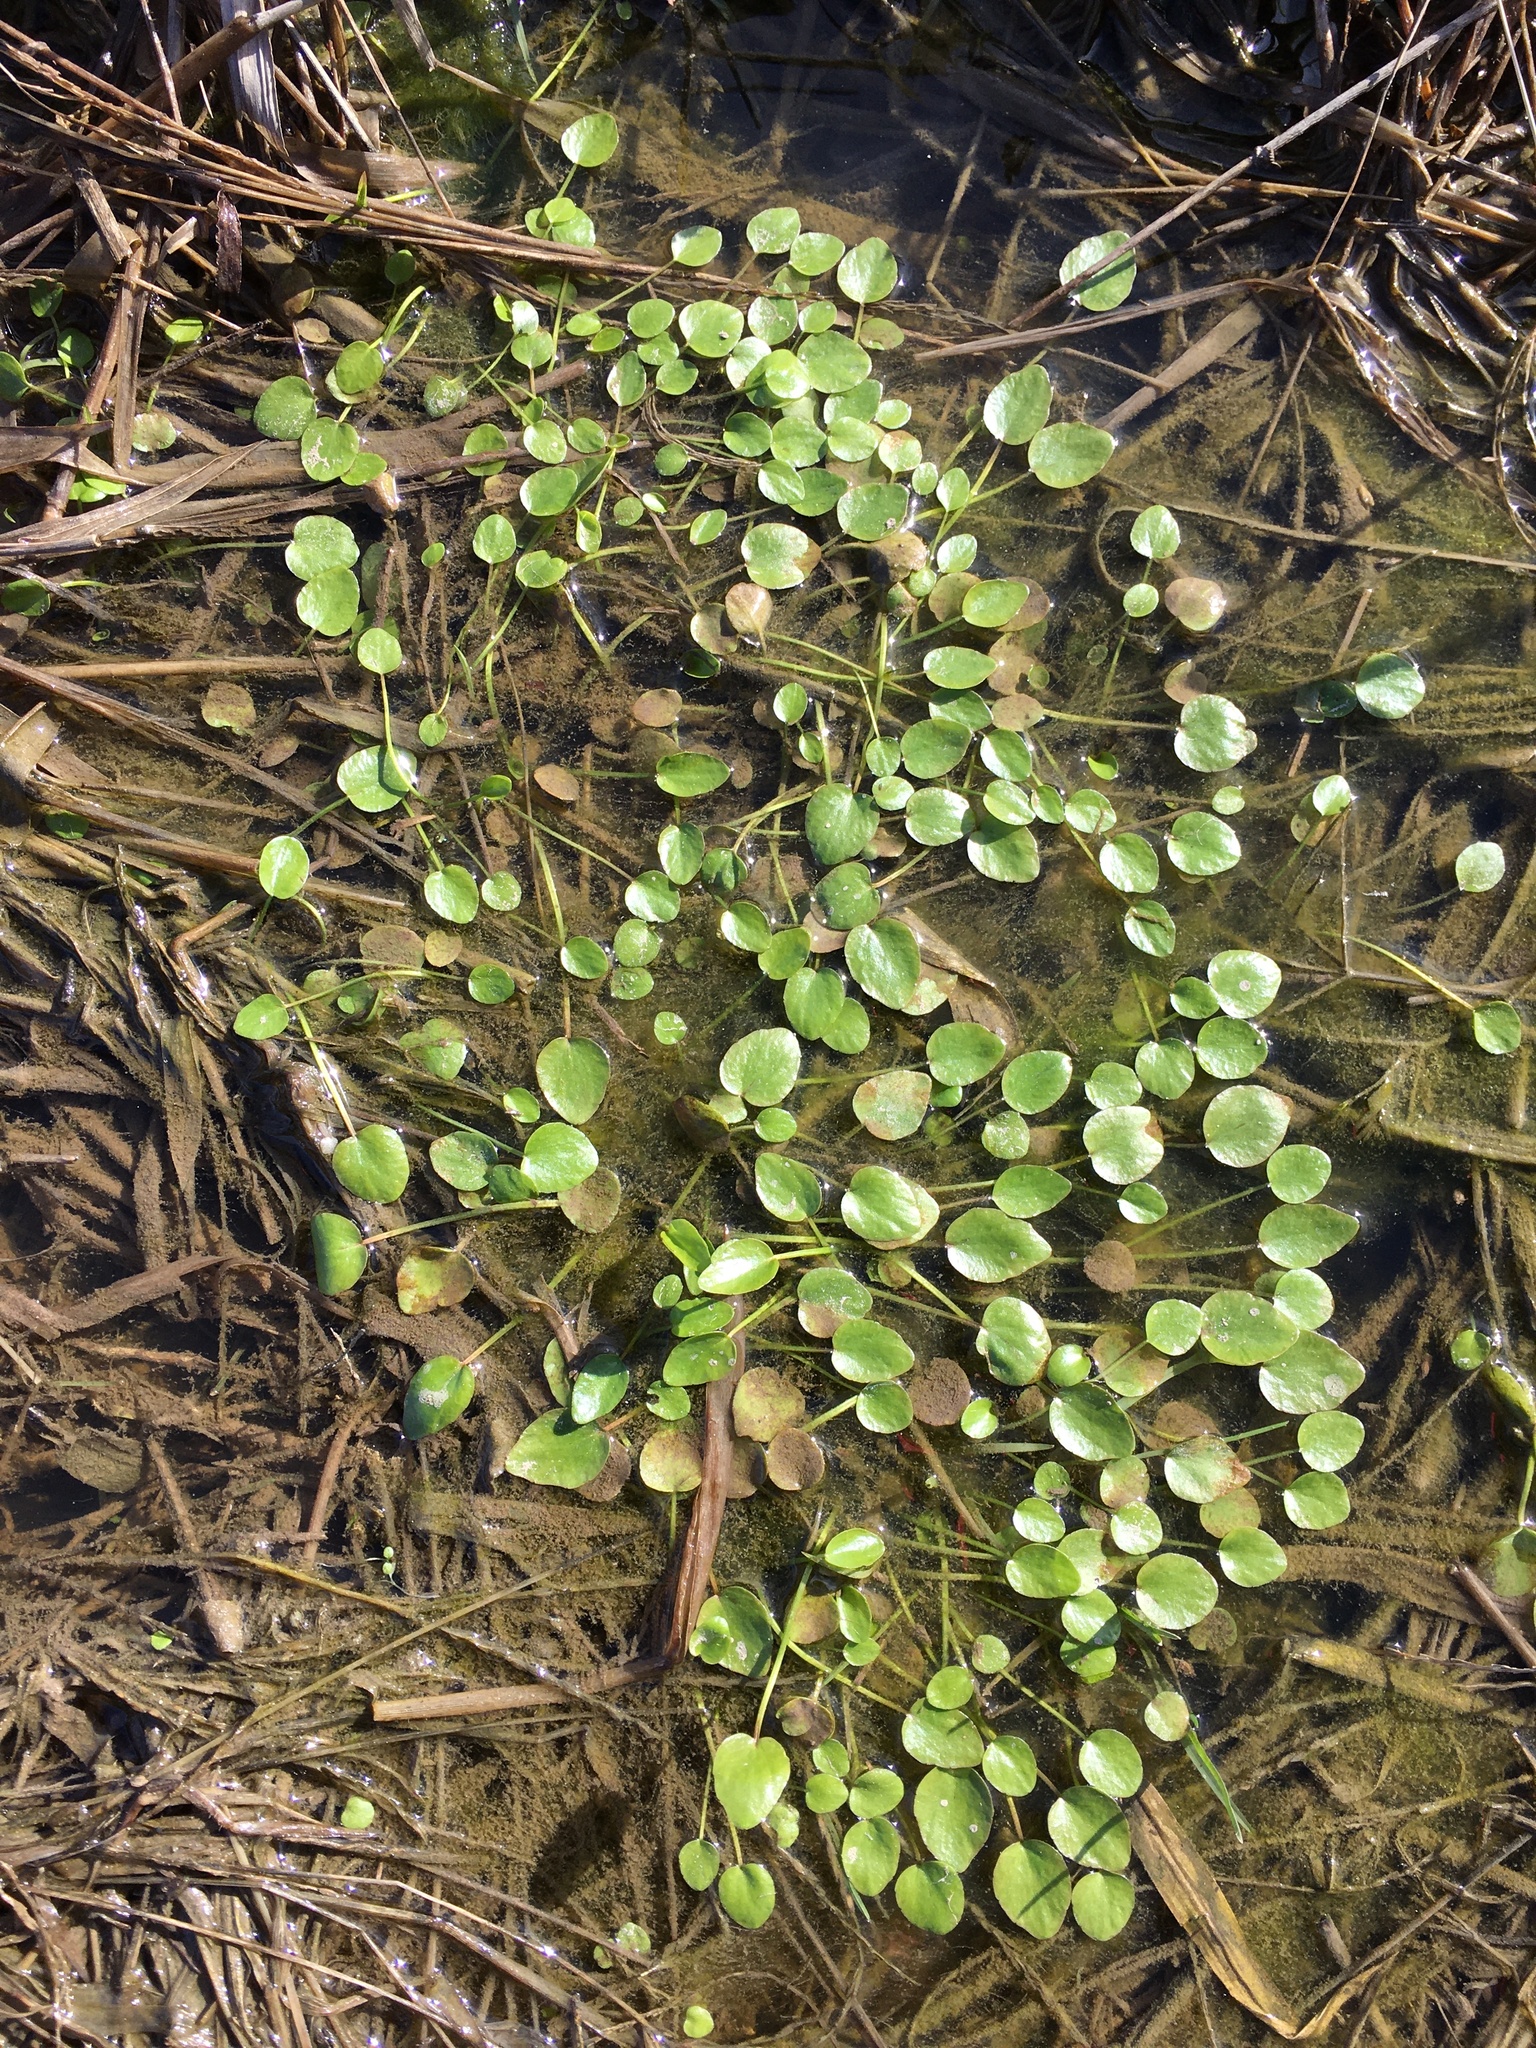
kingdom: Plantae
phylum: Tracheophyta
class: Magnoliopsida
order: Ranunculales
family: Ranunculaceae
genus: Ranunculus
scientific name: Ranunculus pusillus
